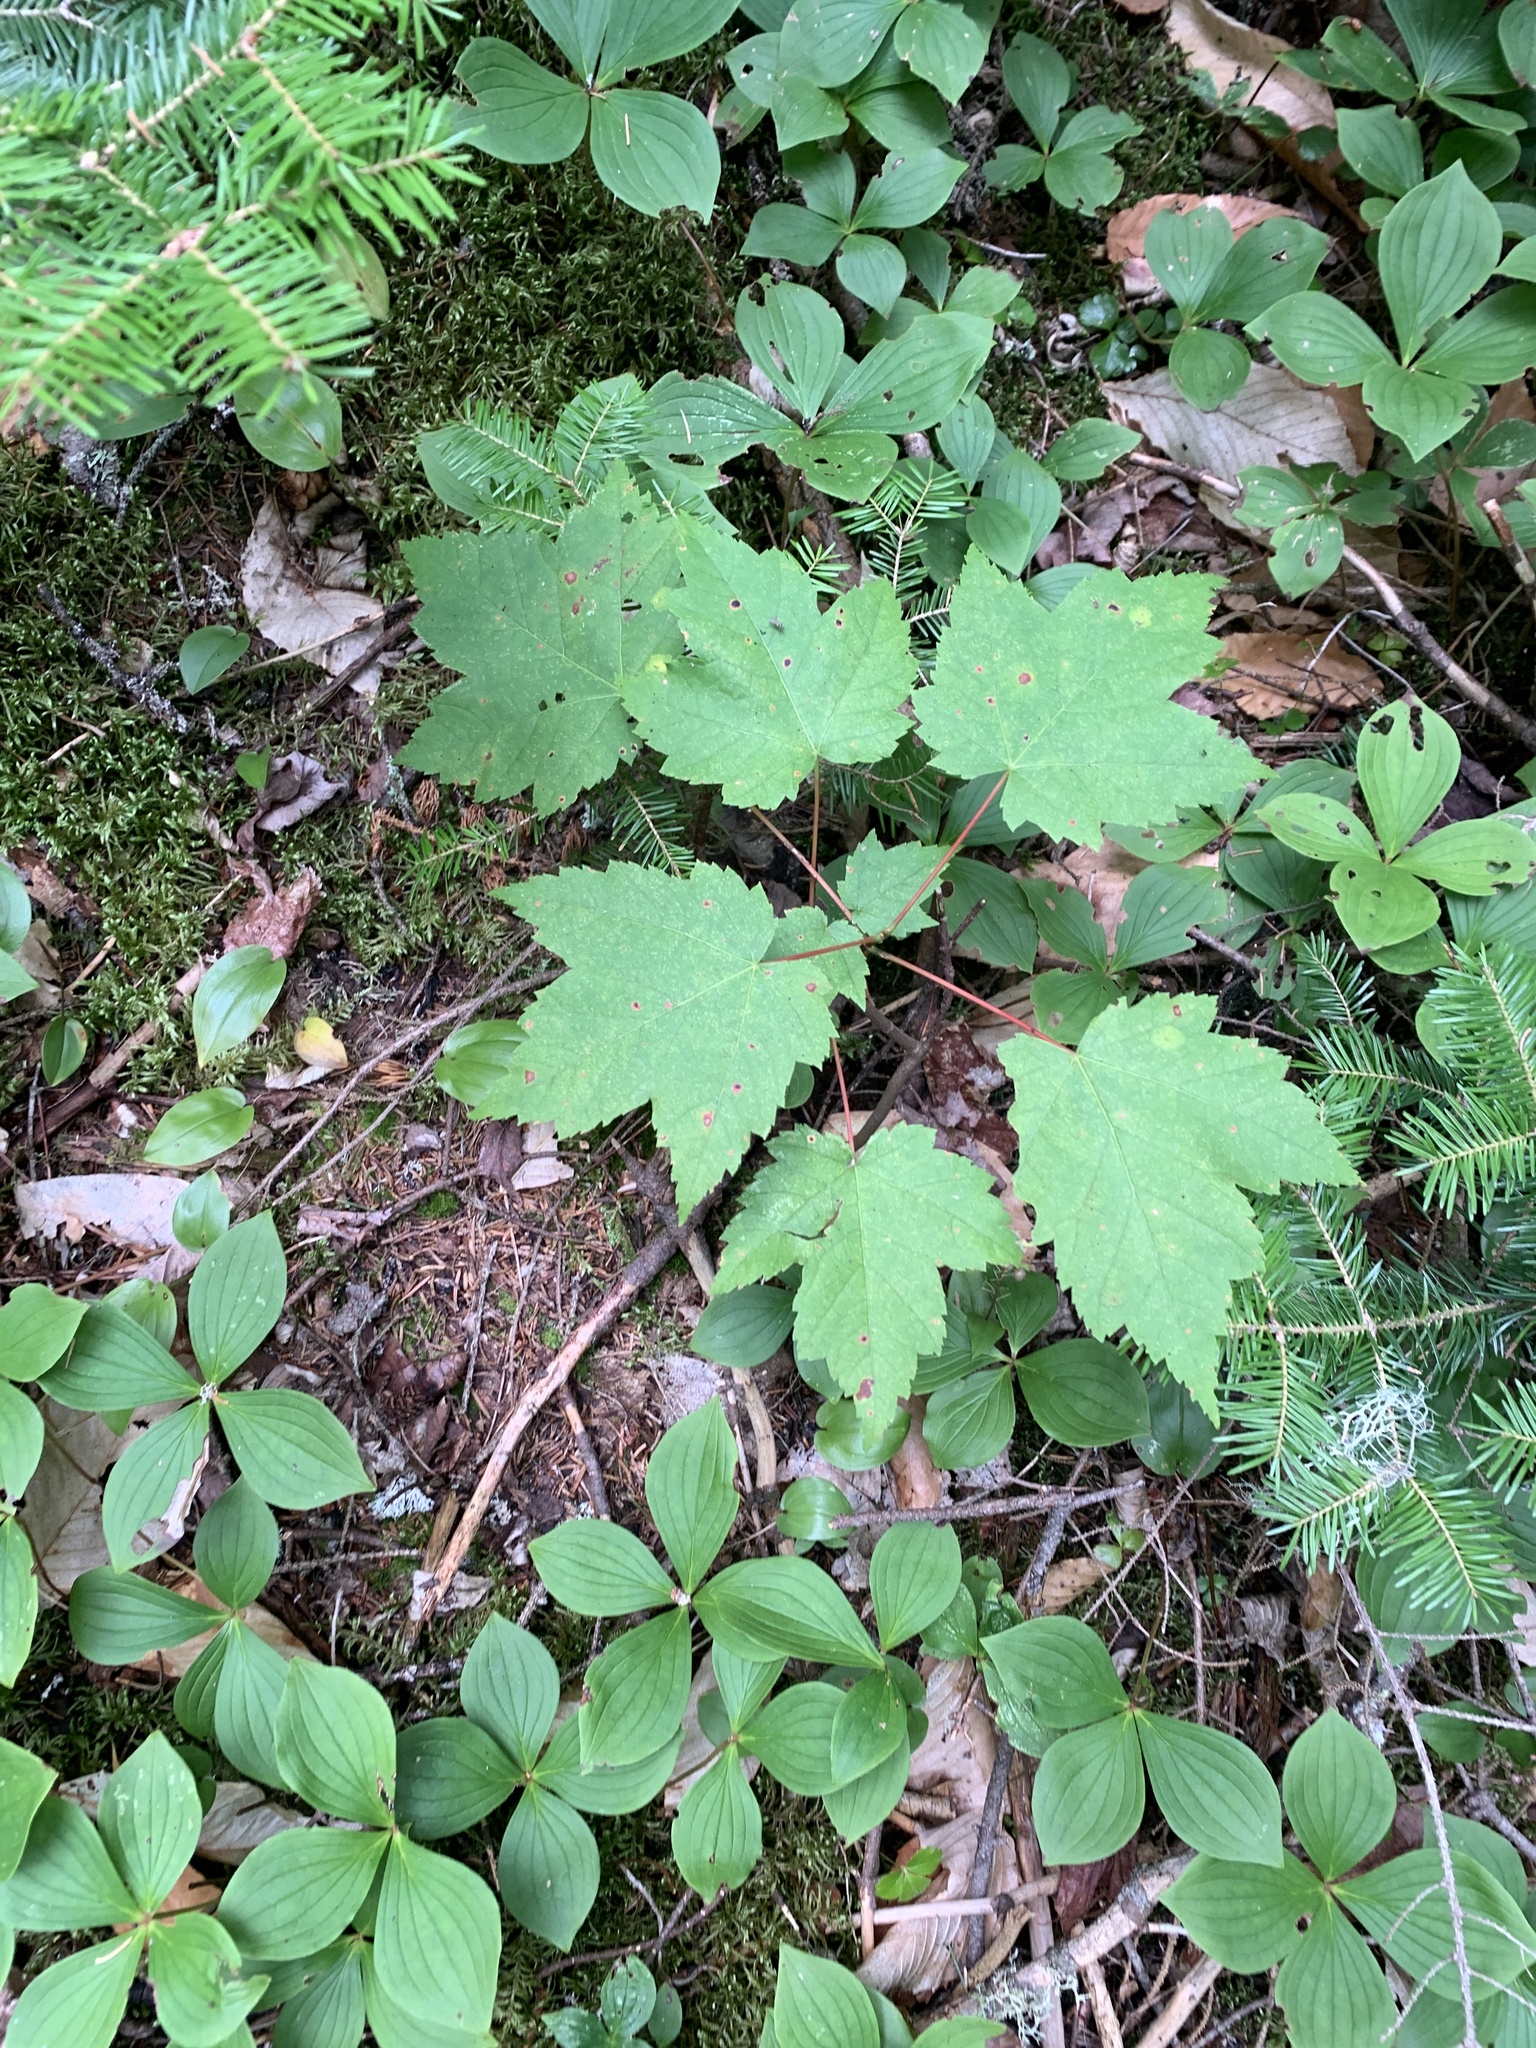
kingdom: Plantae
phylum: Tracheophyta
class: Magnoliopsida
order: Sapindales
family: Sapindaceae
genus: Acer
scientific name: Acer rubrum
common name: Red maple
